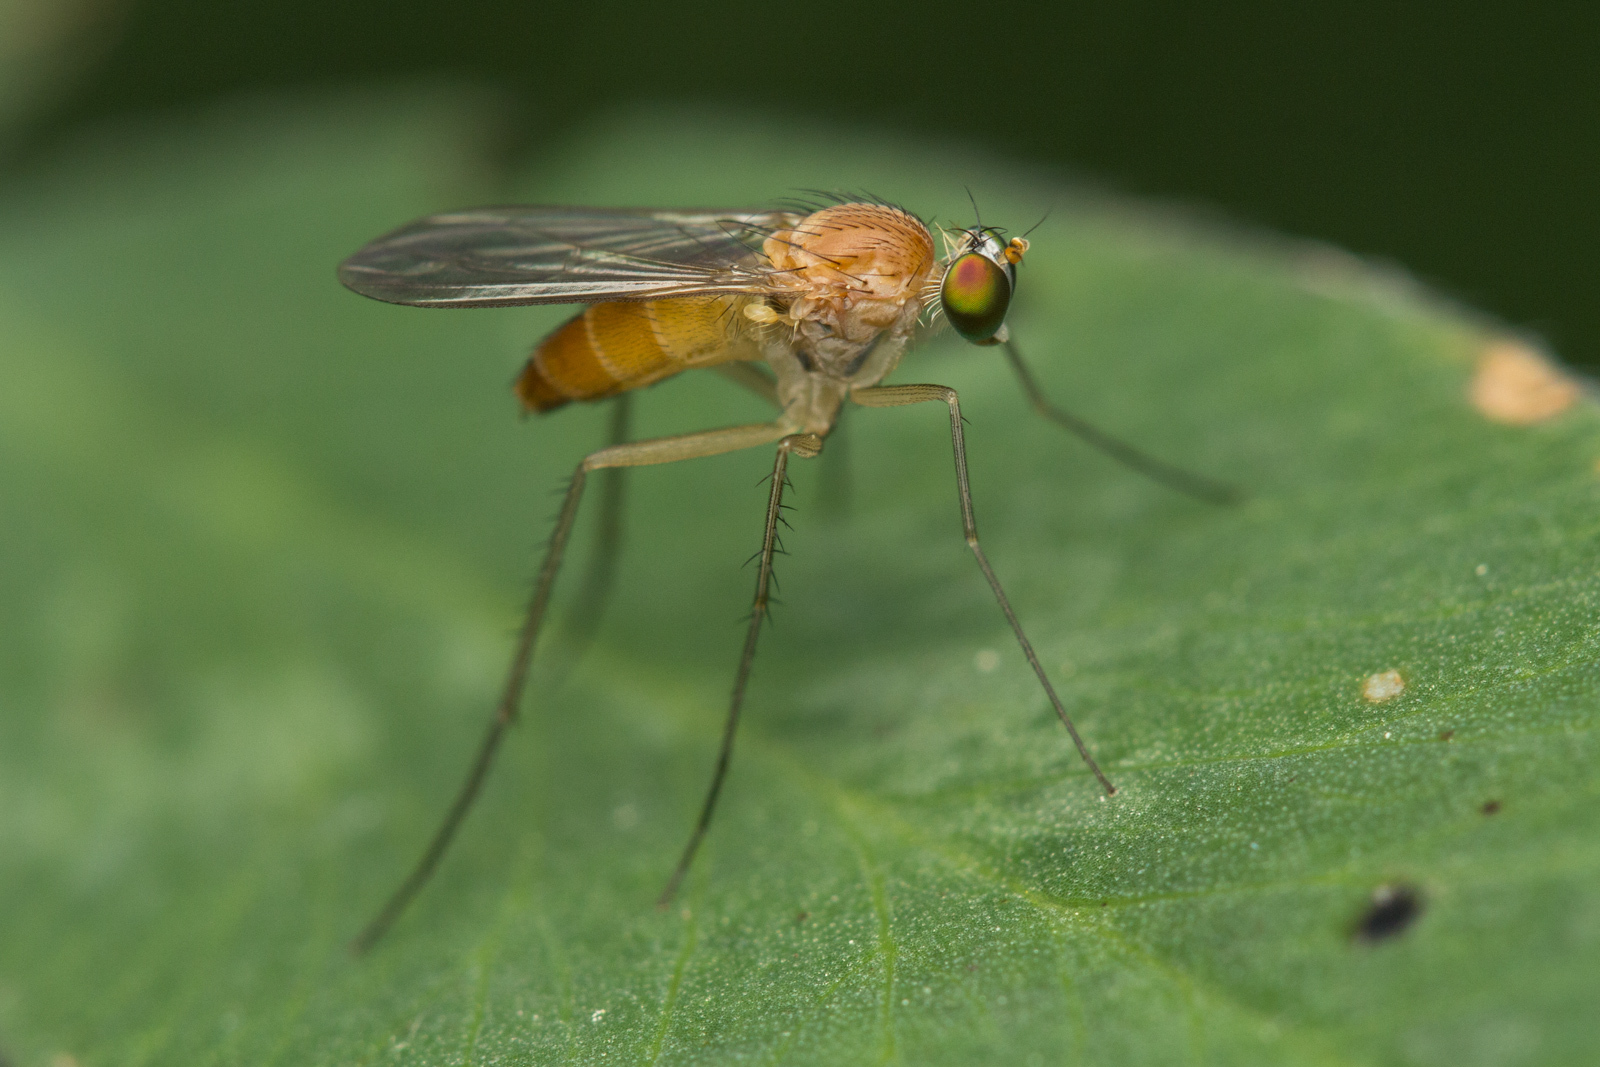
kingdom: Animalia
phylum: Arthropoda
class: Insecta
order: Diptera
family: Dolichopodidae
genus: Neurigona
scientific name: Neurigona pallida
